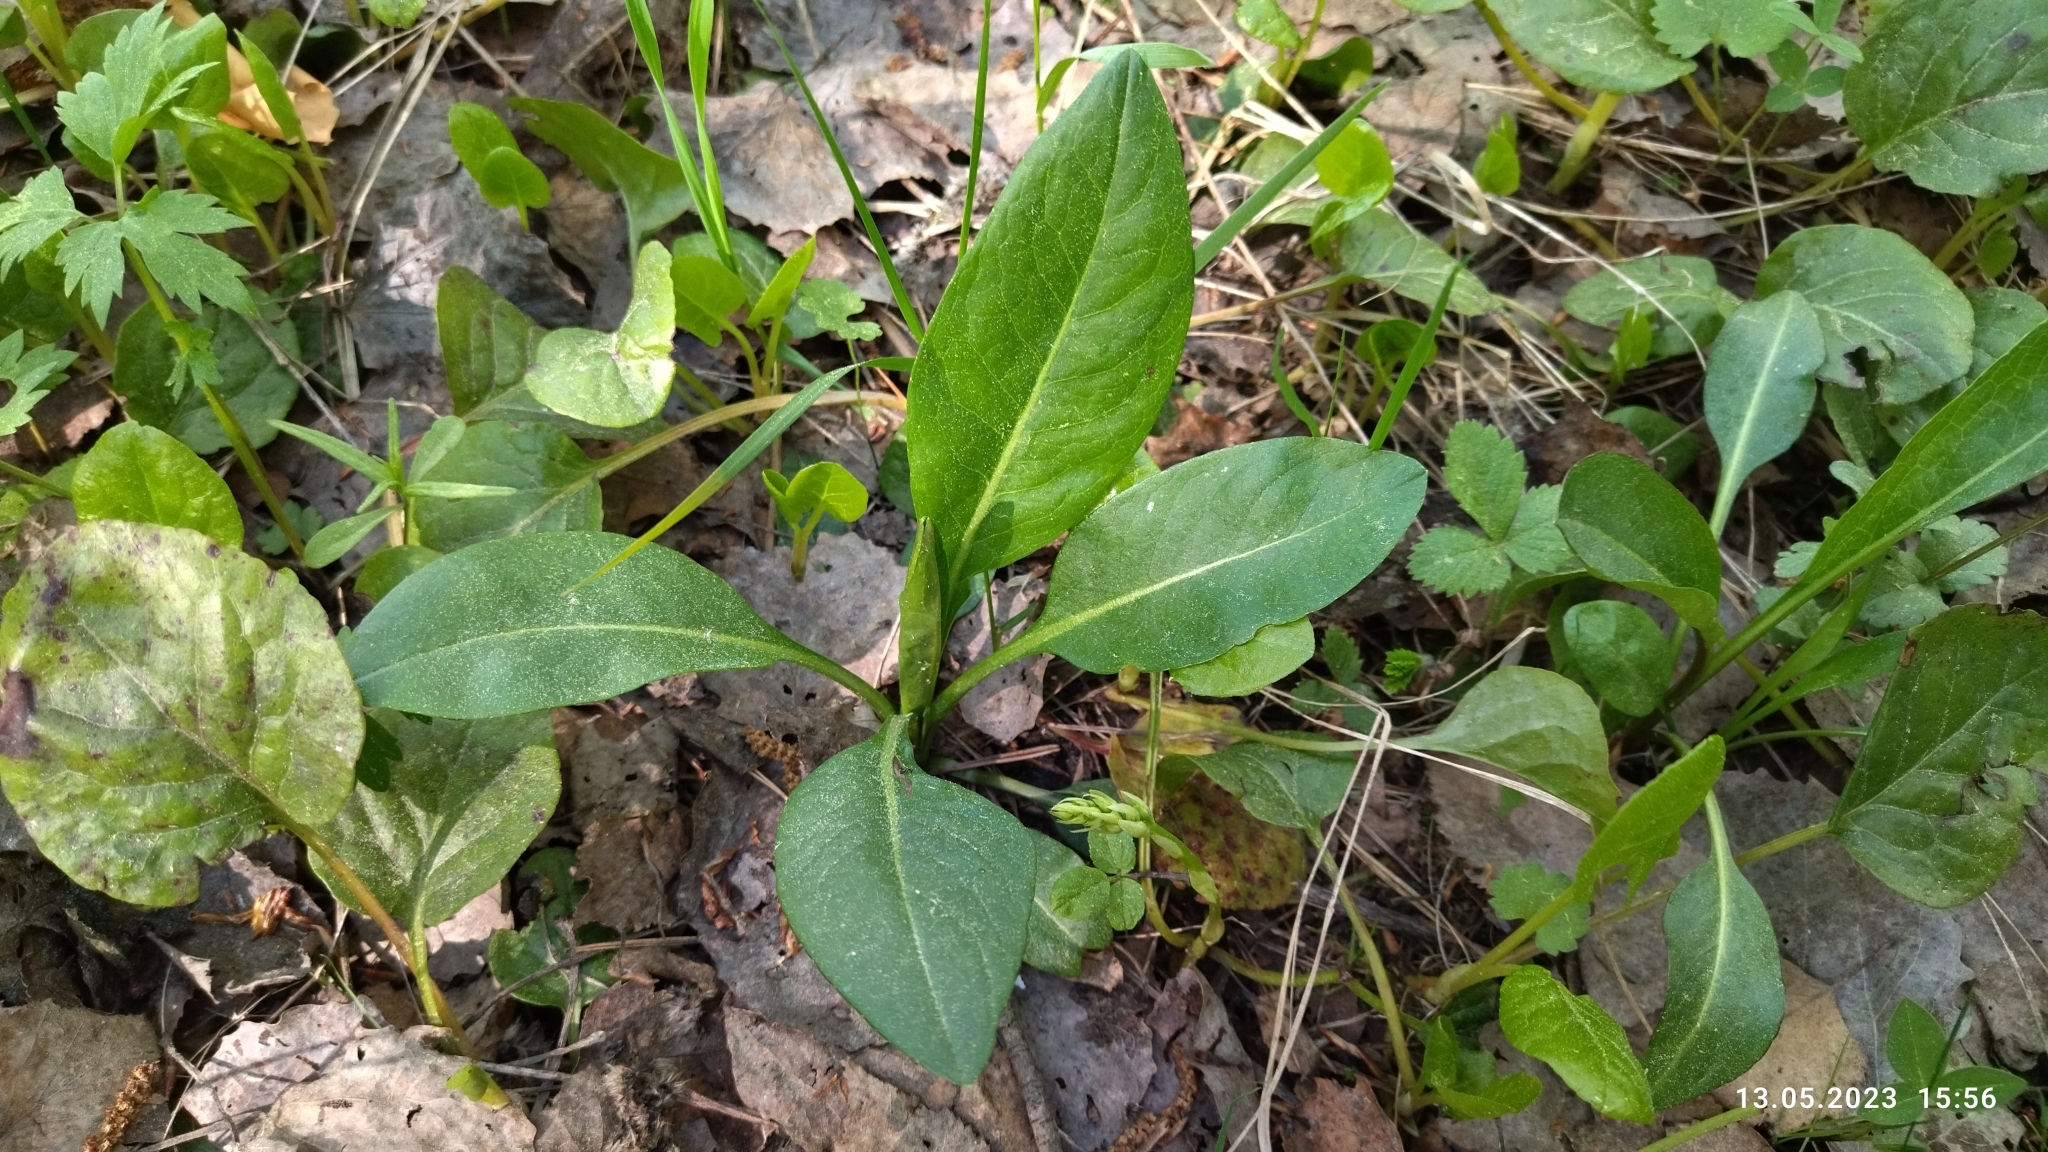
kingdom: Plantae
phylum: Tracheophyta
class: Magnoliopsida
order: Dipsacales
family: Caprifoliaceae
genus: Succisa
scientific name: Succisa pratensis
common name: Devil's-bit
